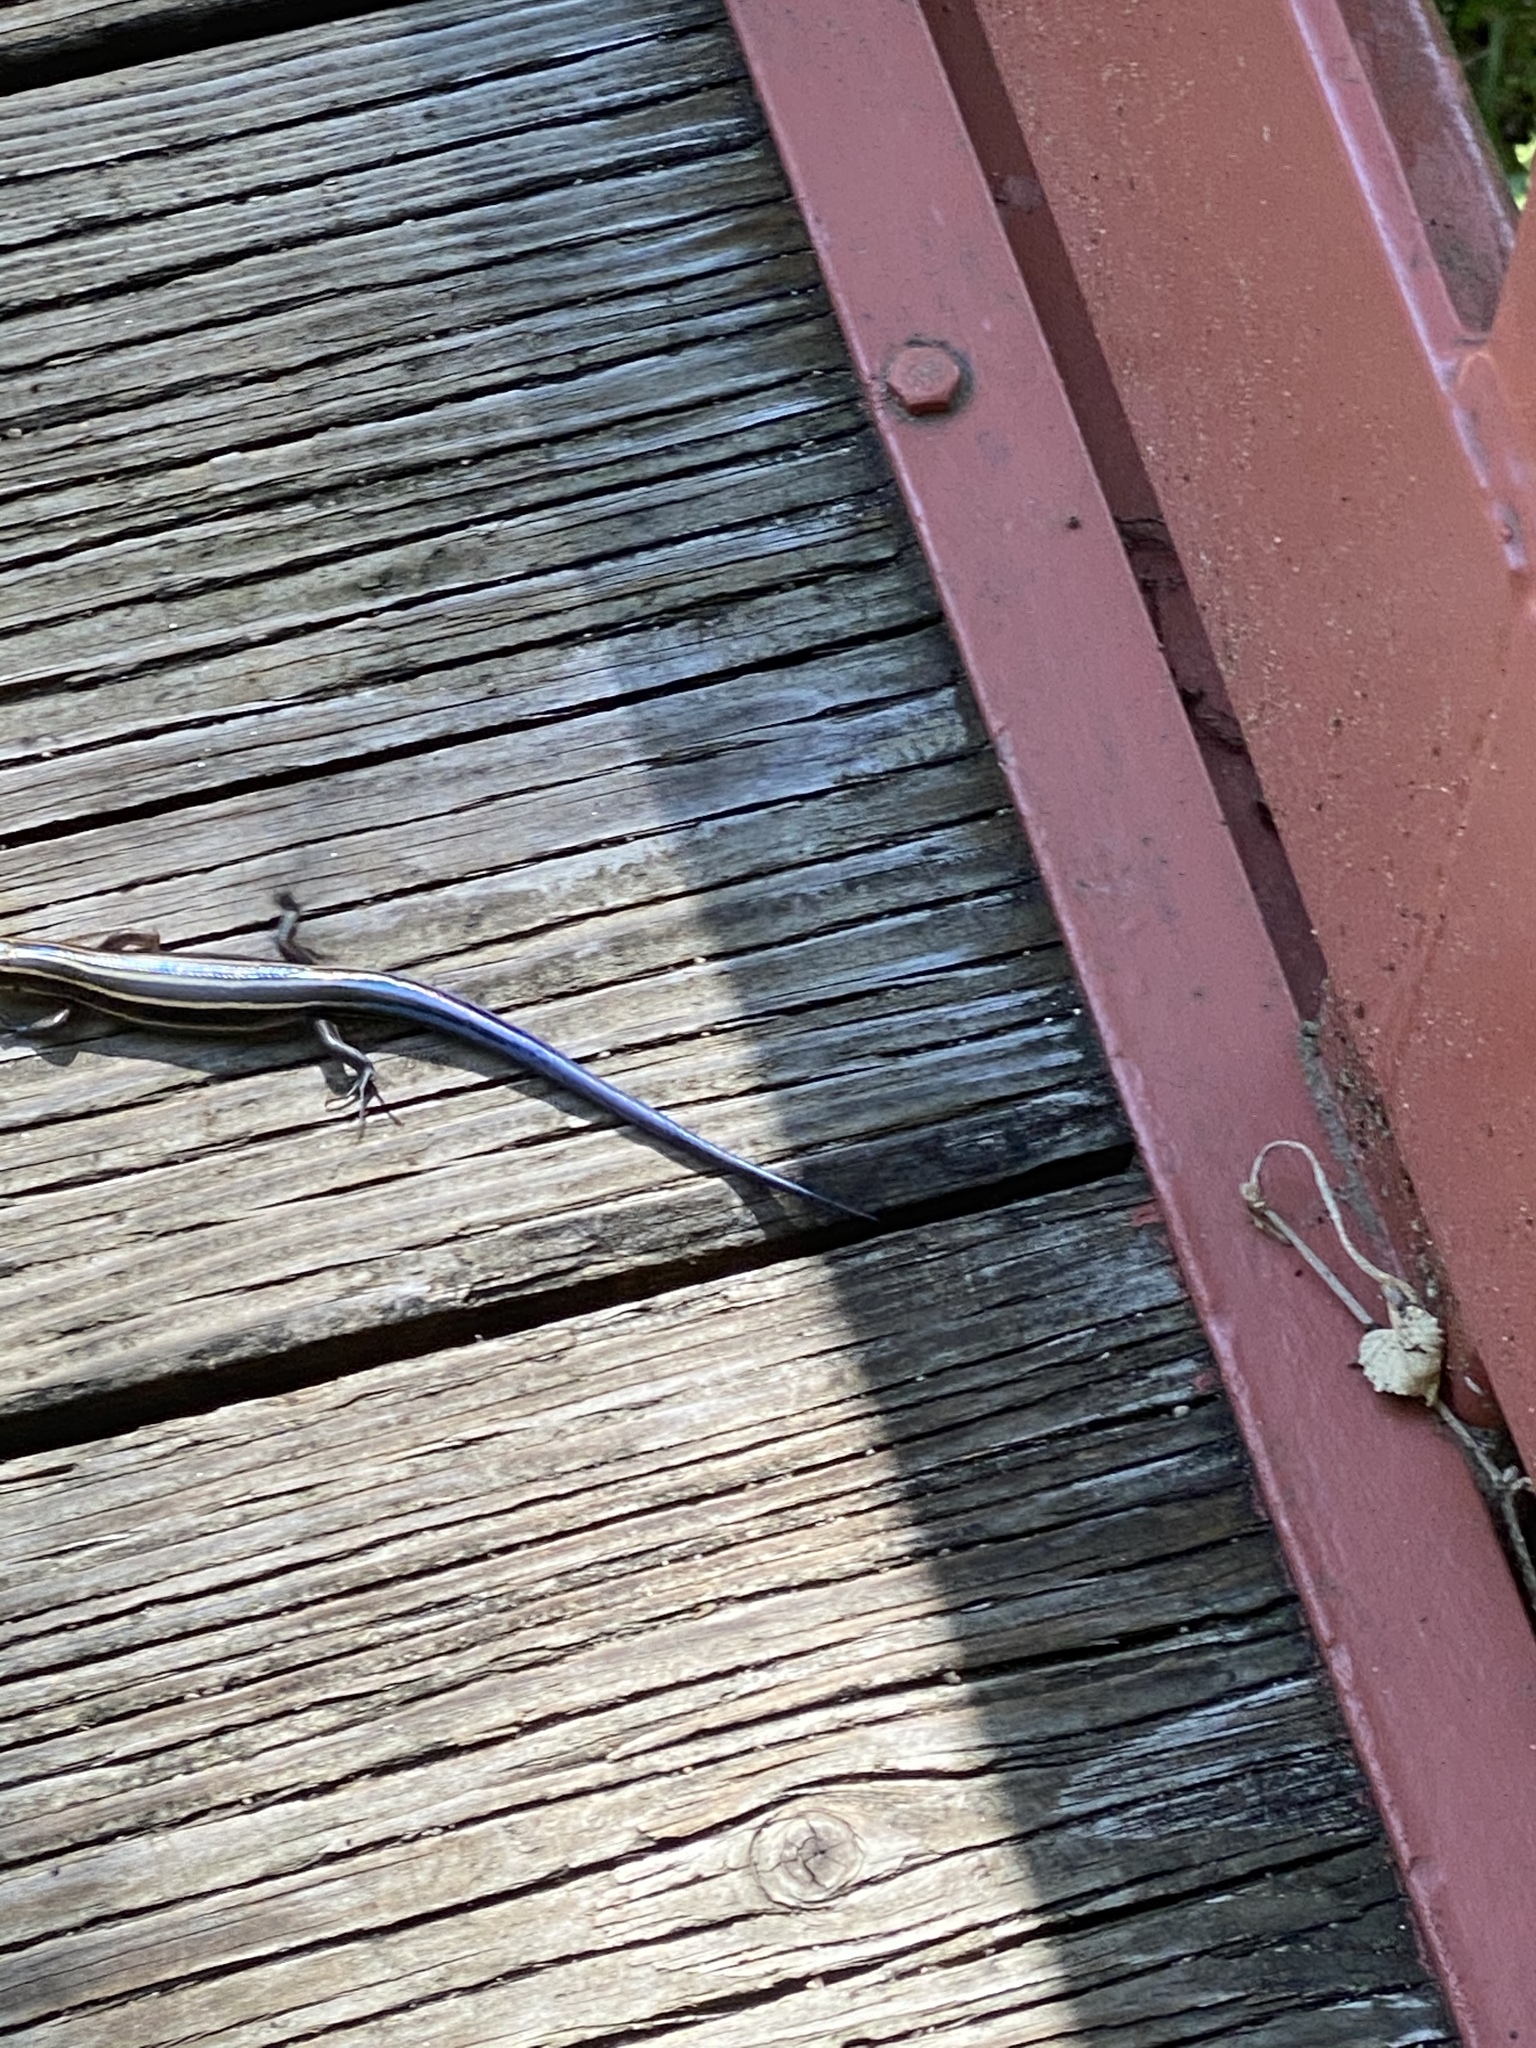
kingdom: Animalia
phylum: Chordata
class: Squamata
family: Scincidae
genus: Plestiodon
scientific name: Plestiodon fasciatus
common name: Five-lined skink
